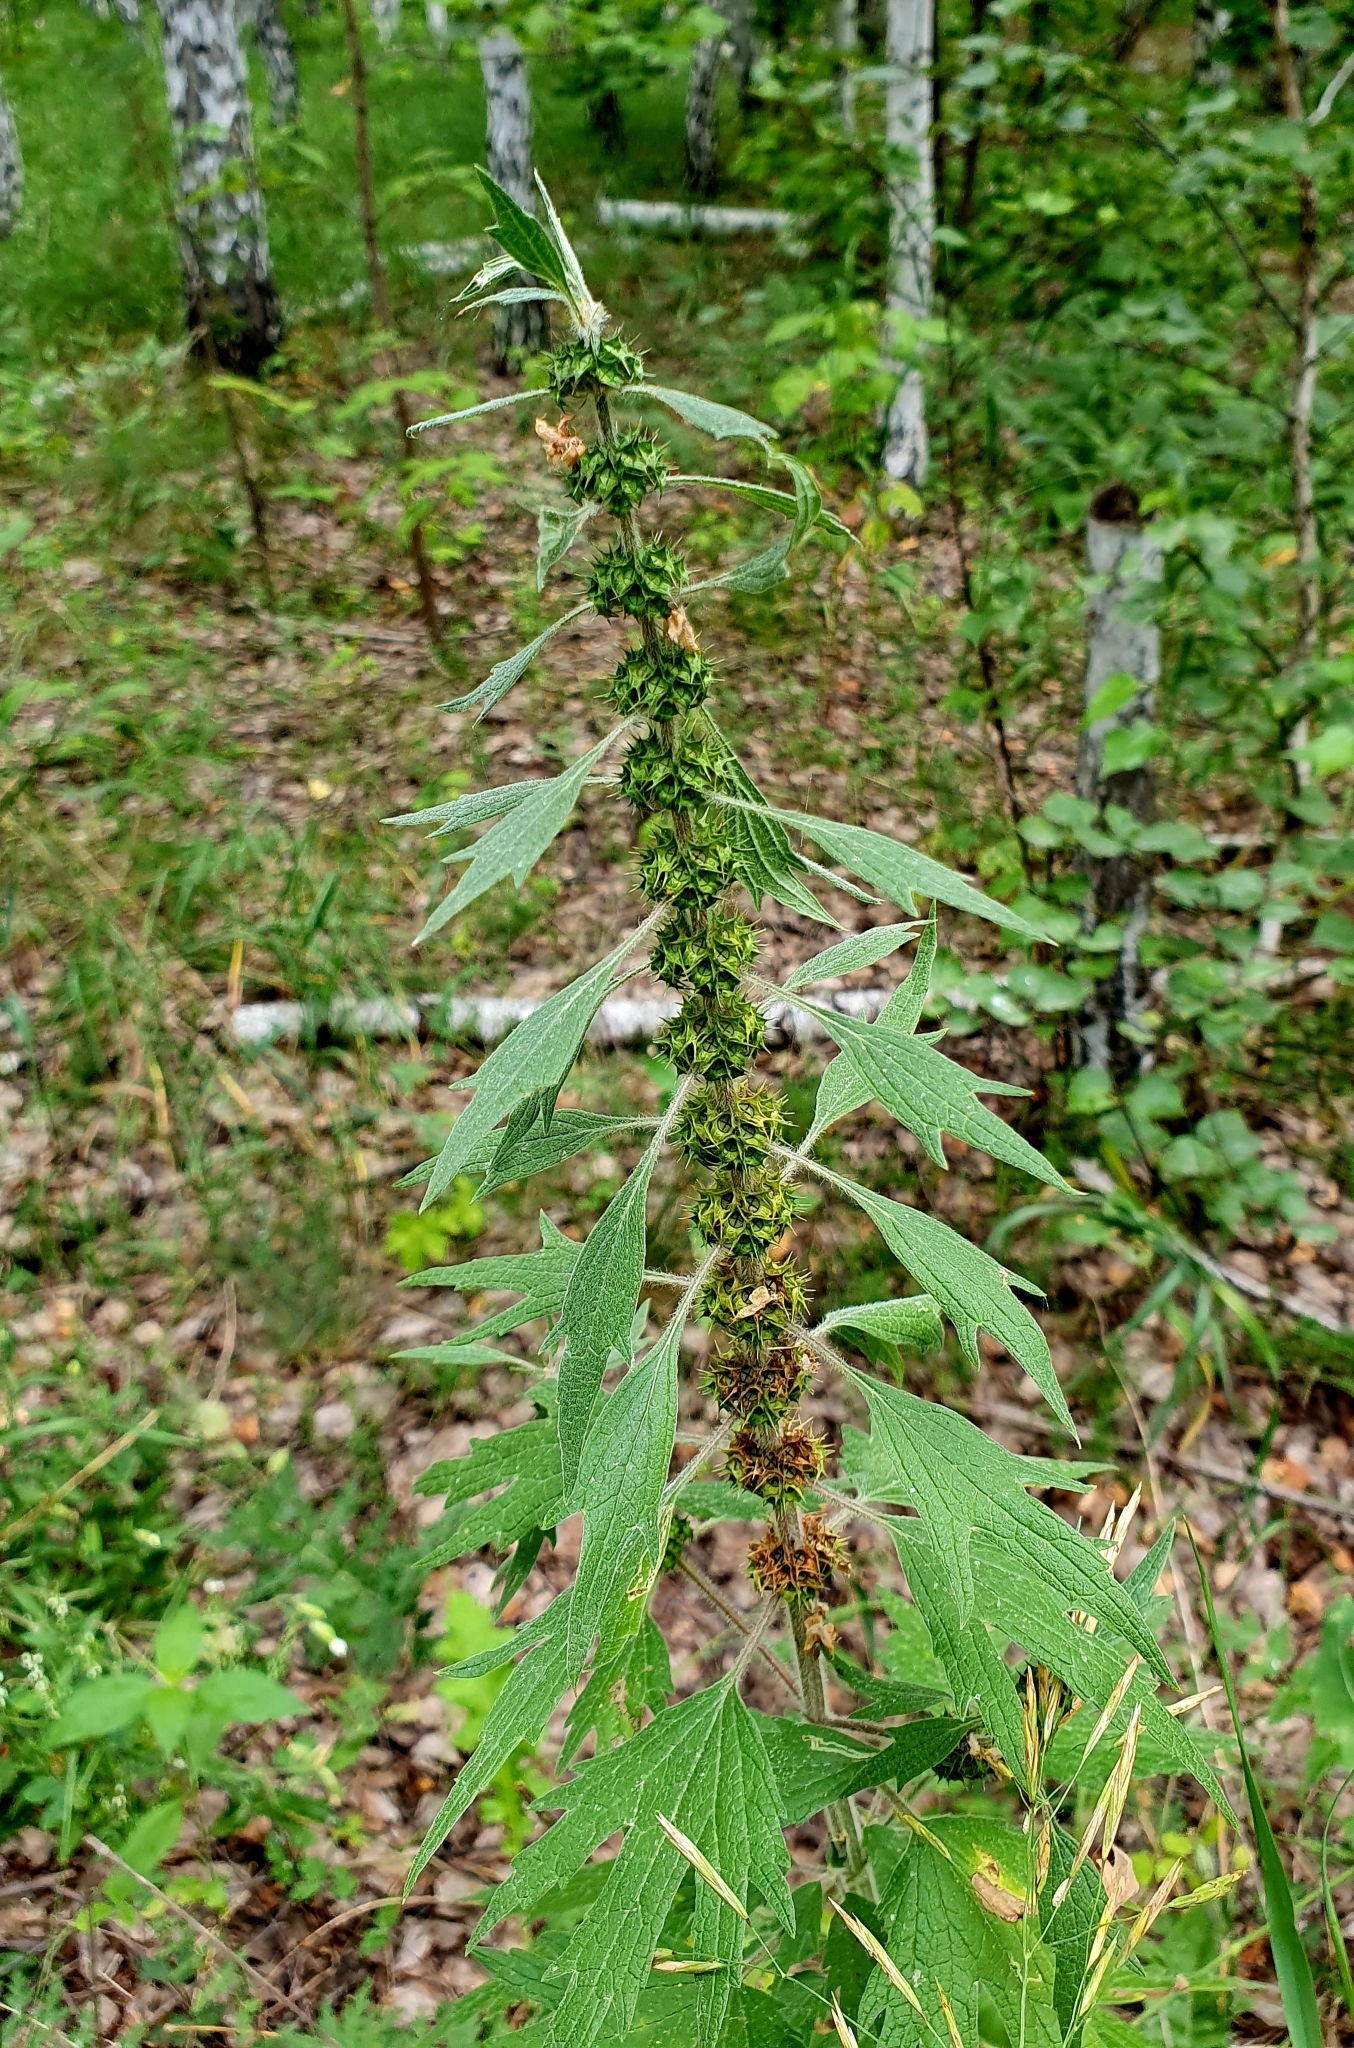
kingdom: Plantae
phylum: Tracheophyta
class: Magnoliopsida
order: Lamiales
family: Lamiaceae
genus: Leonurus
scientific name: Leonurus quinquelobatus
